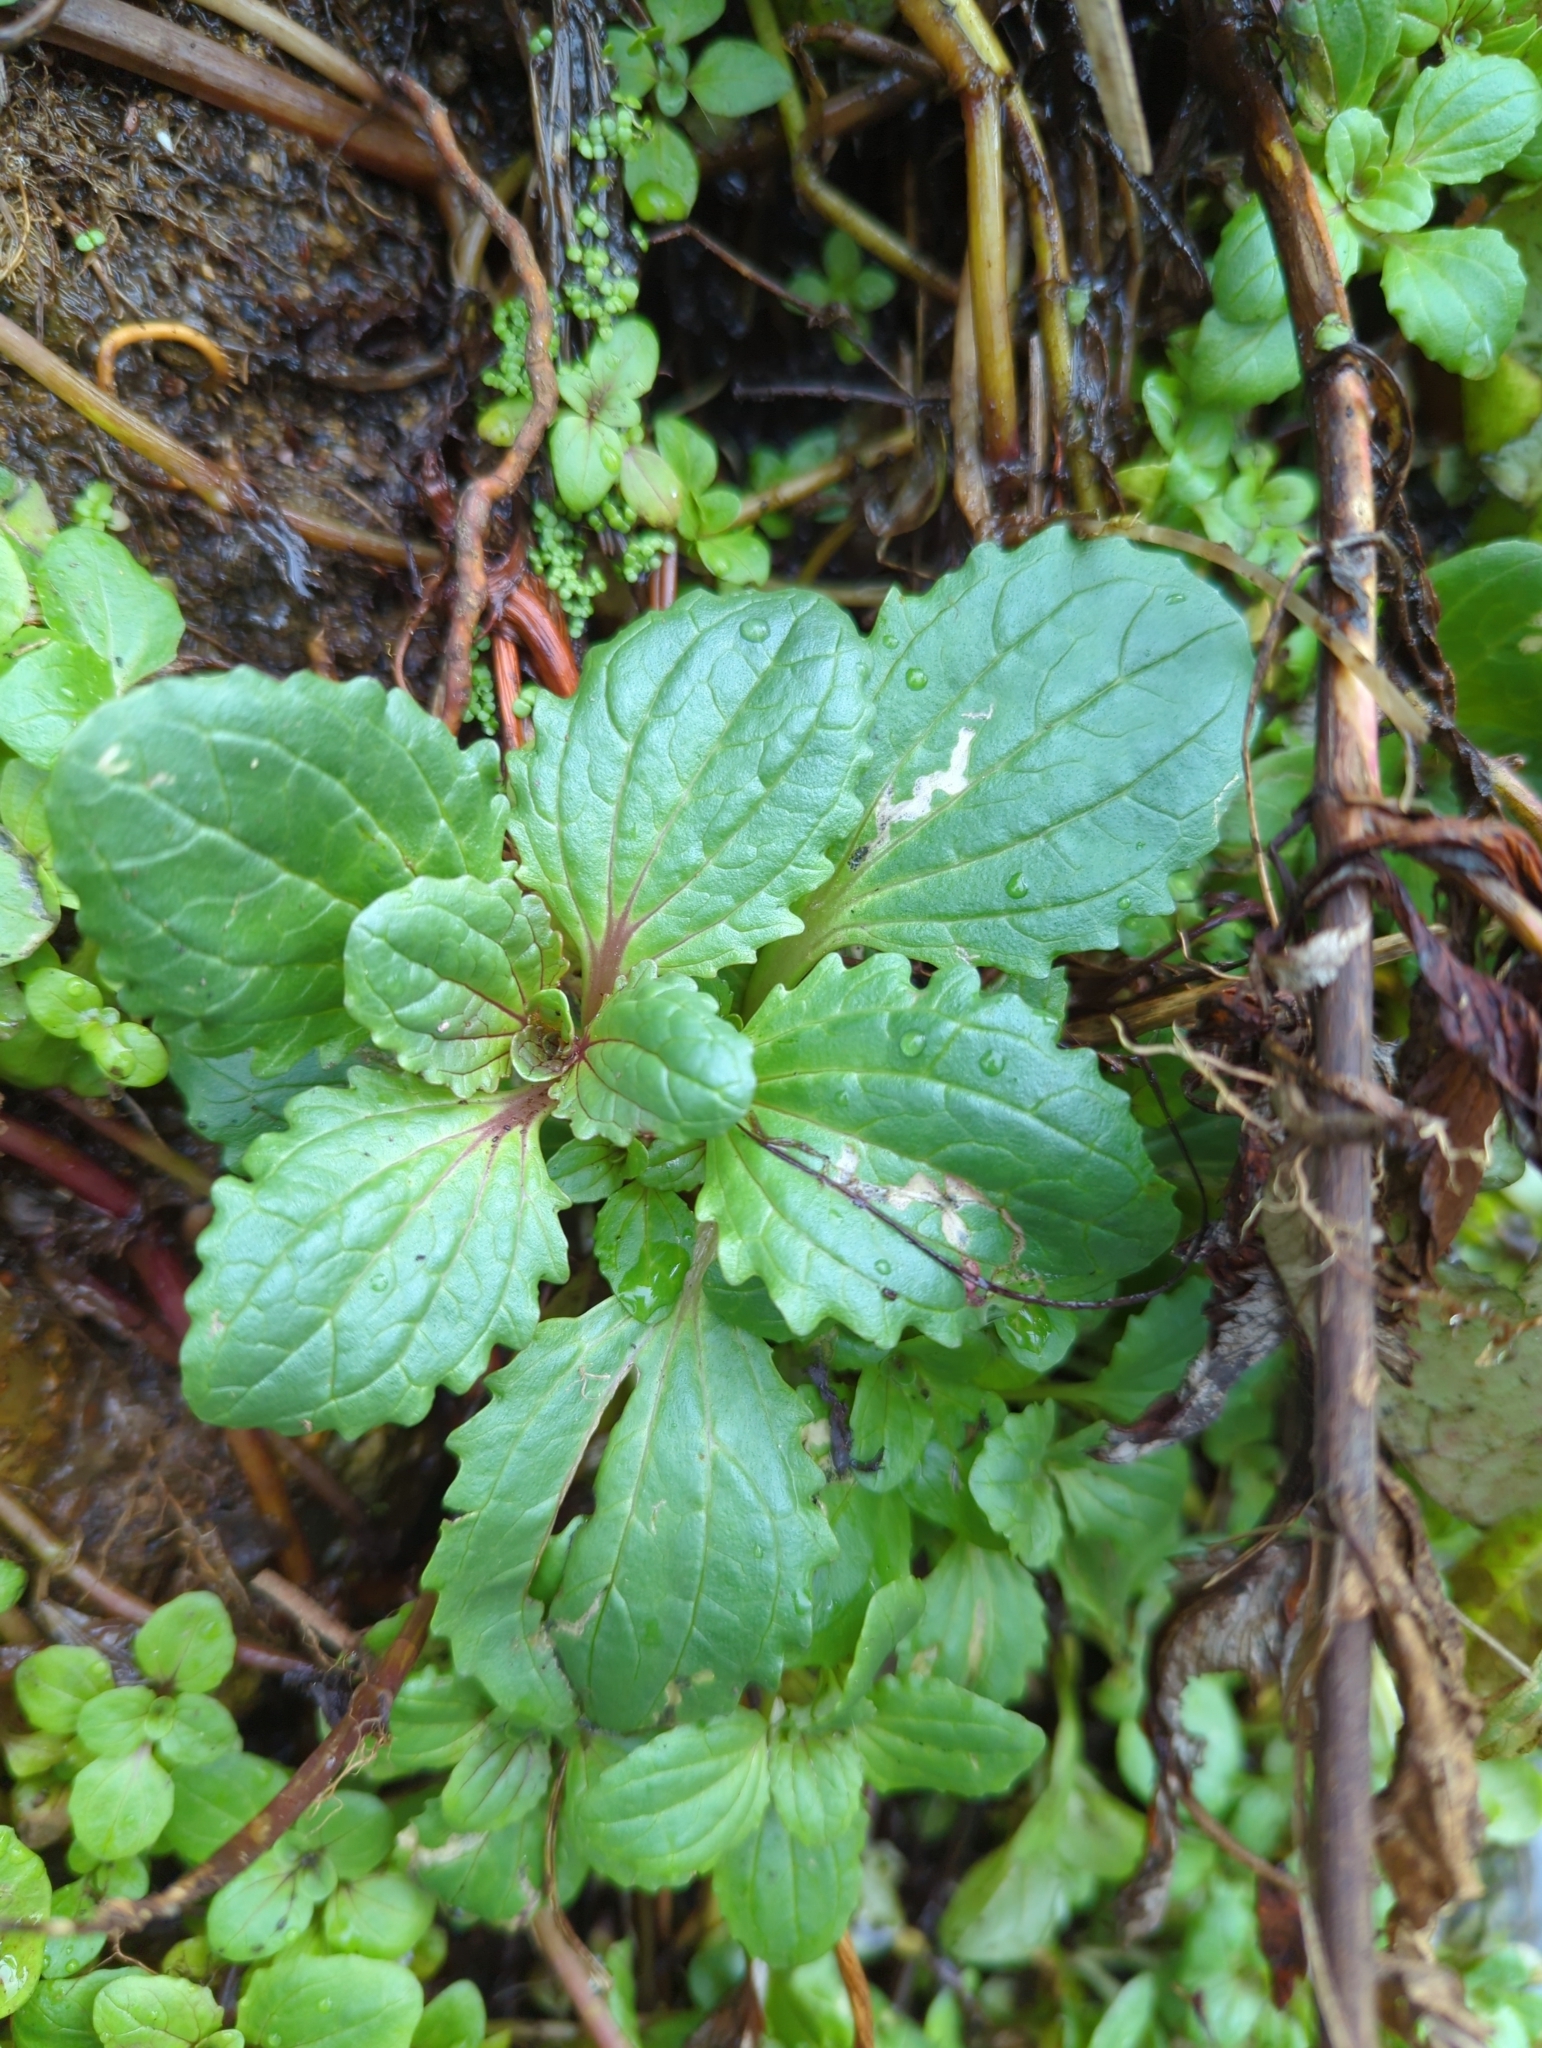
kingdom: Plantae
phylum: Tracheophyta
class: Magnoliopsida
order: Lamiales
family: Phrymaceae
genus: Erythranthe
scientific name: Erythranthe grandis
